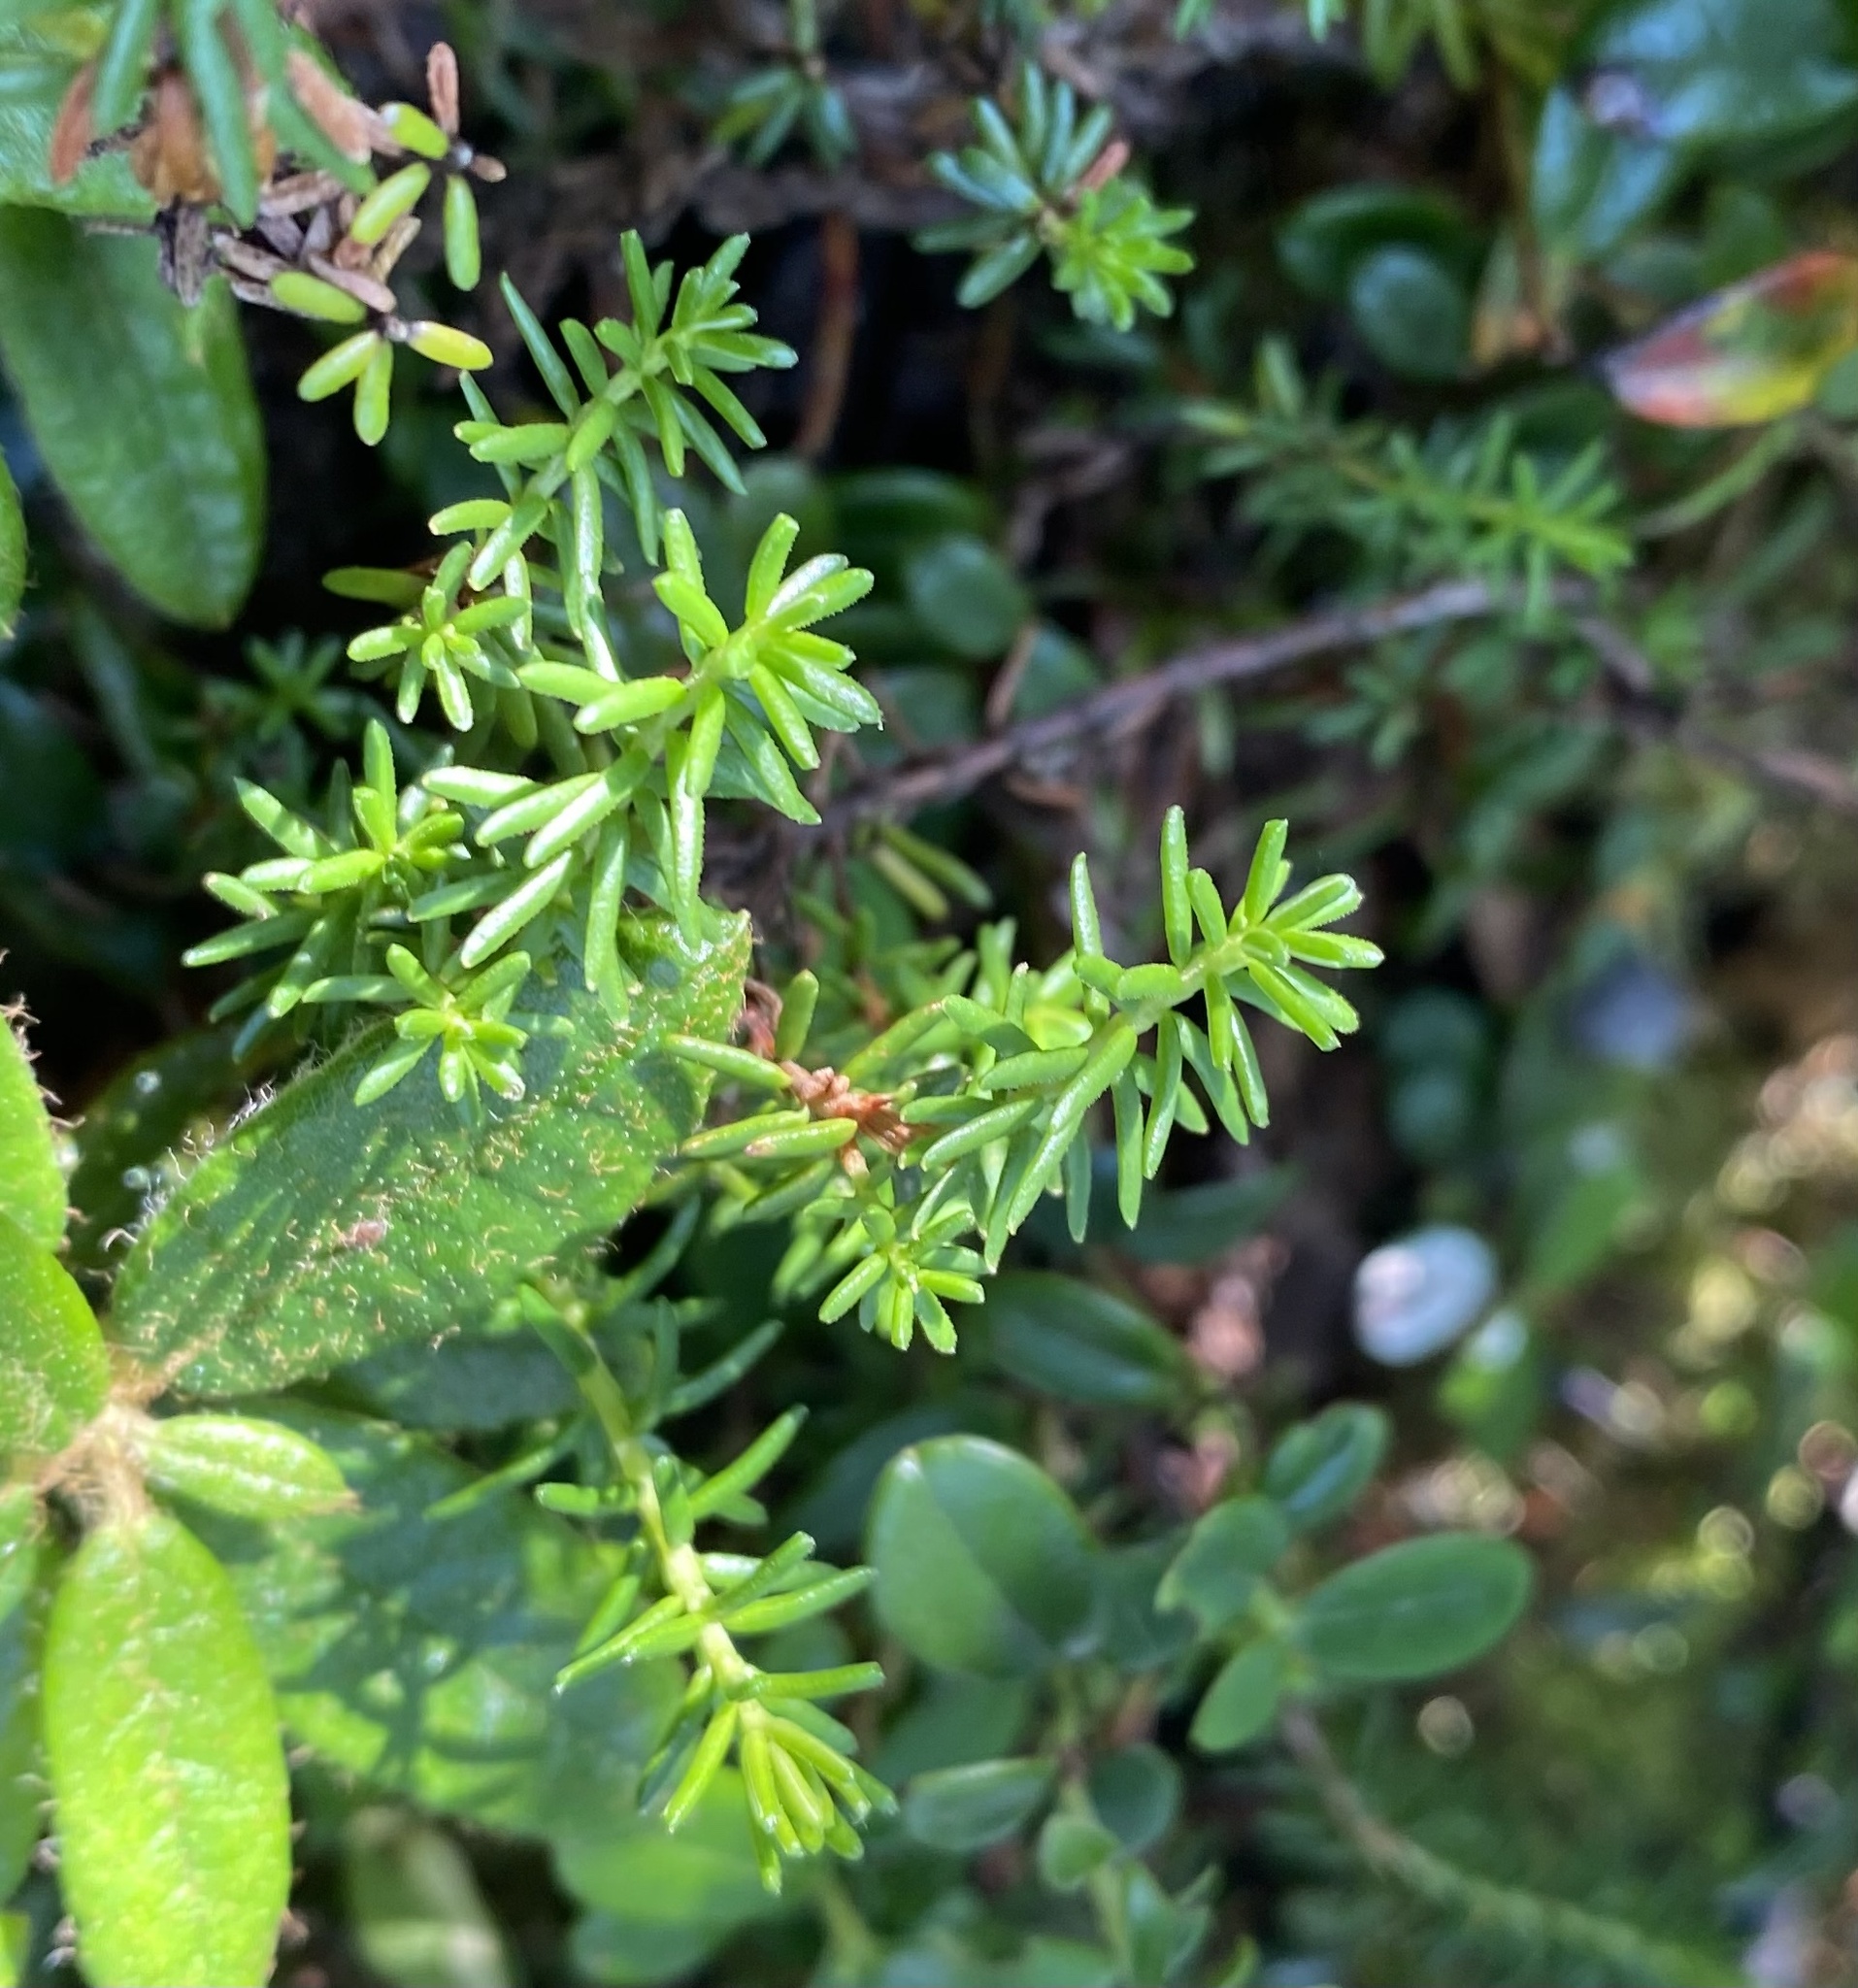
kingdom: Plantae
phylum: Tracheophyta
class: Magnoliopsida
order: Ericales
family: Ericaceae
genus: Empetrum
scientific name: Empetrum nigrum
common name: Black crowberry
